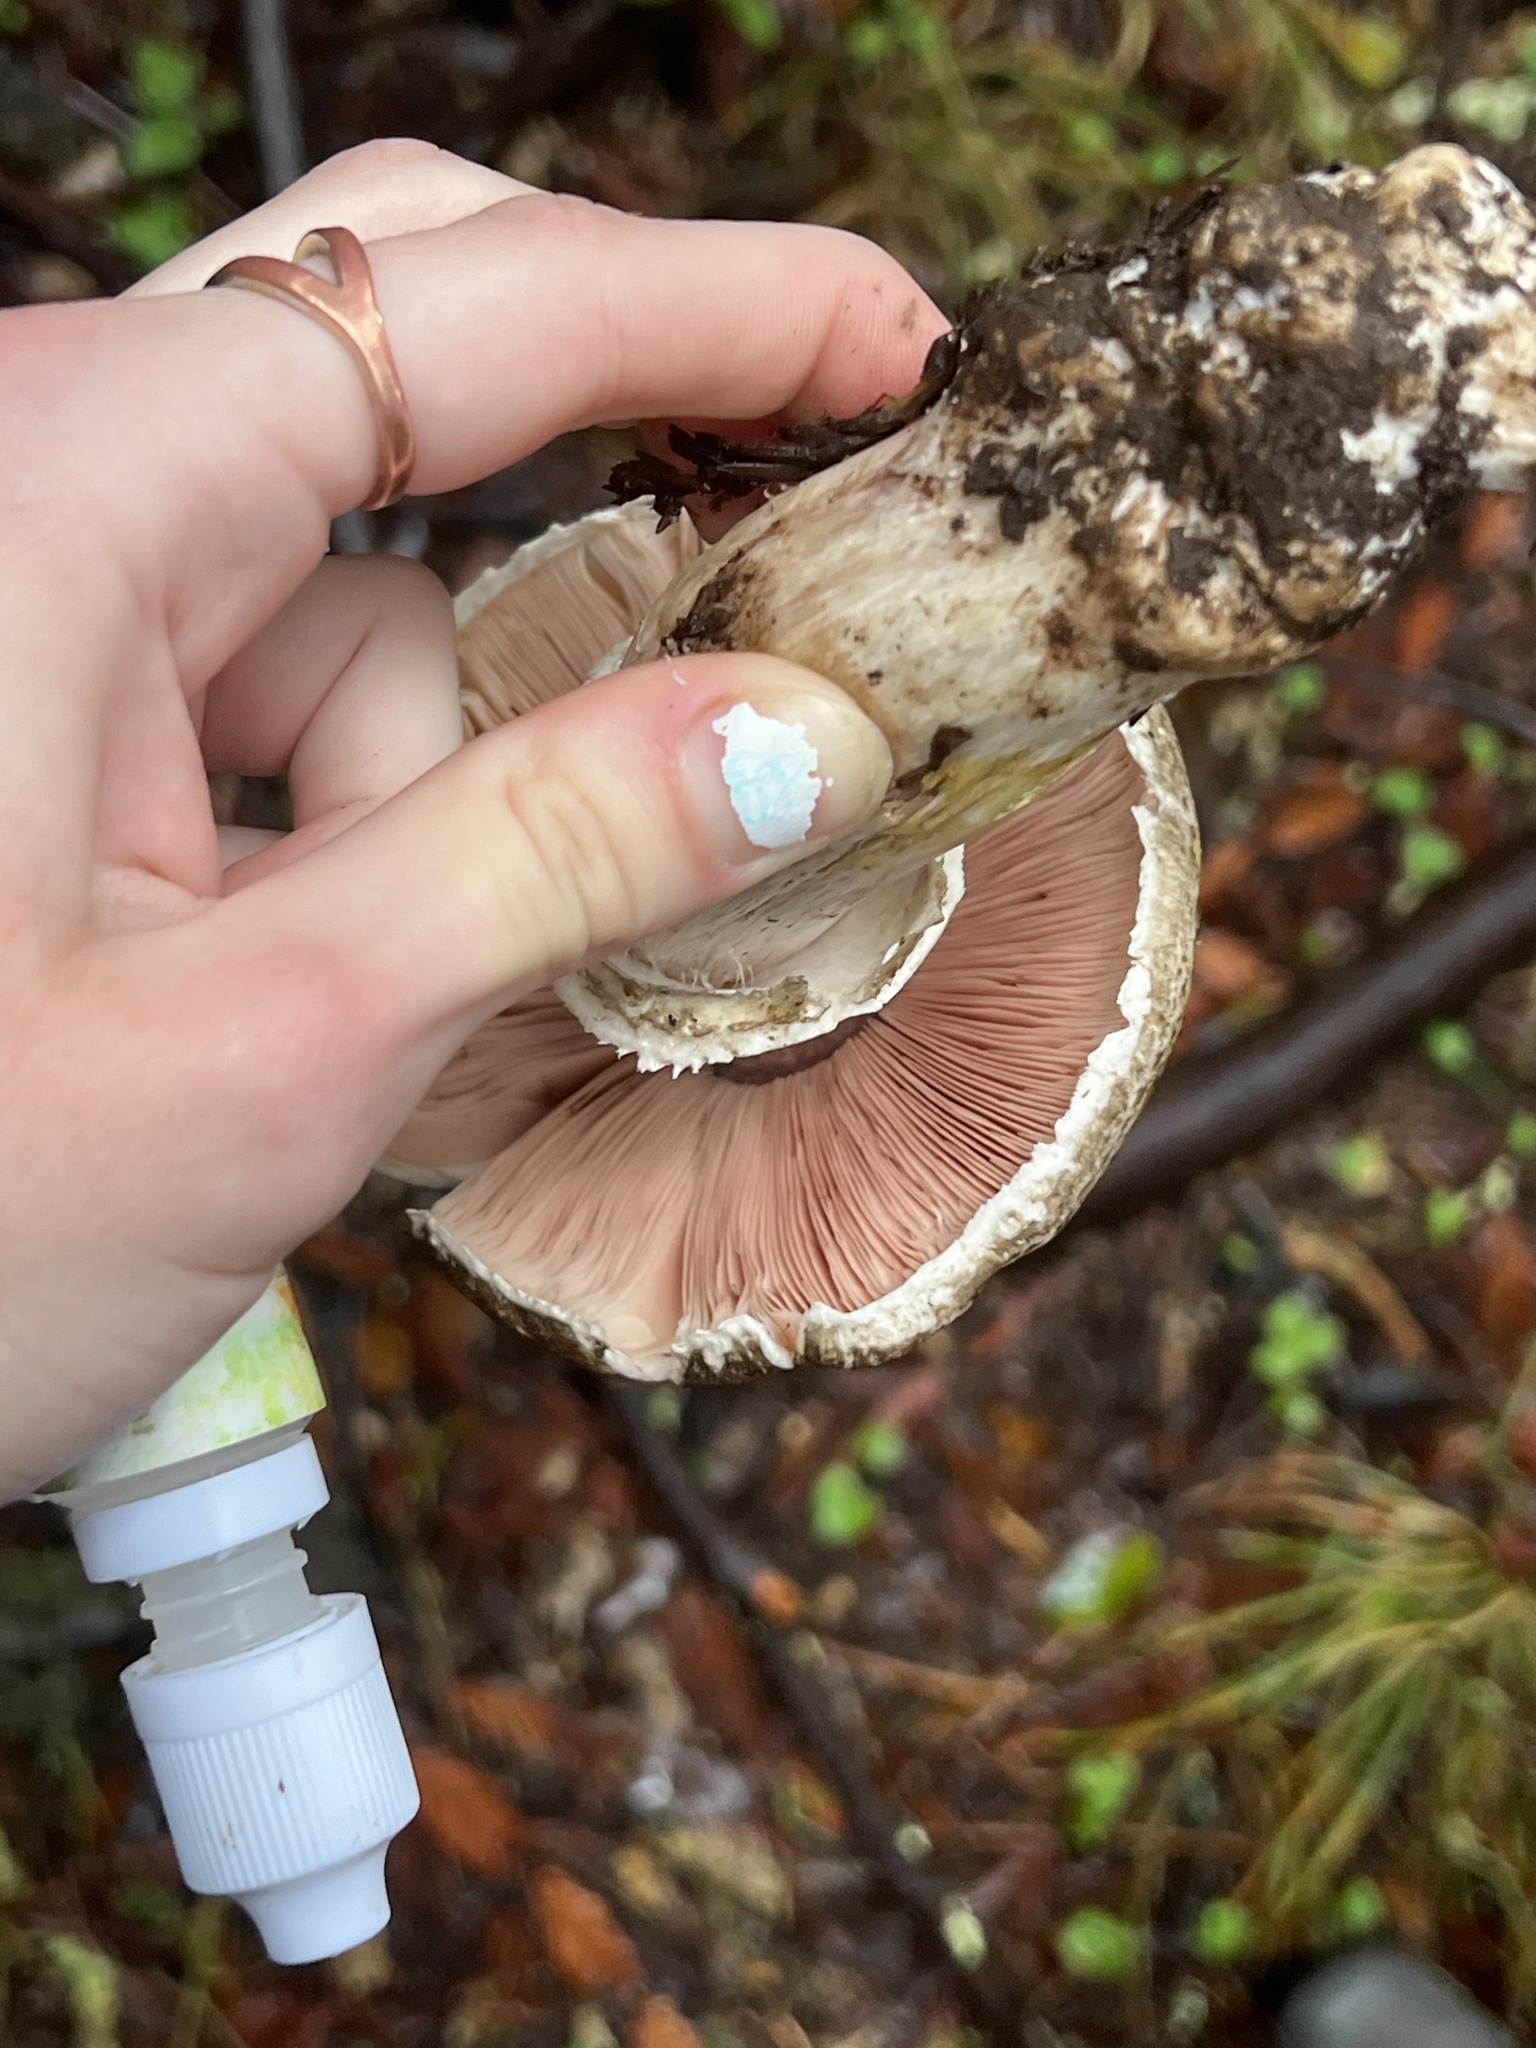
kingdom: Fungi
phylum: Basidiomycota
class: Agaricomycetes
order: Agaricales
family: Agaricaceae
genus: Agaricus
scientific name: Agaricus deardorffensis
